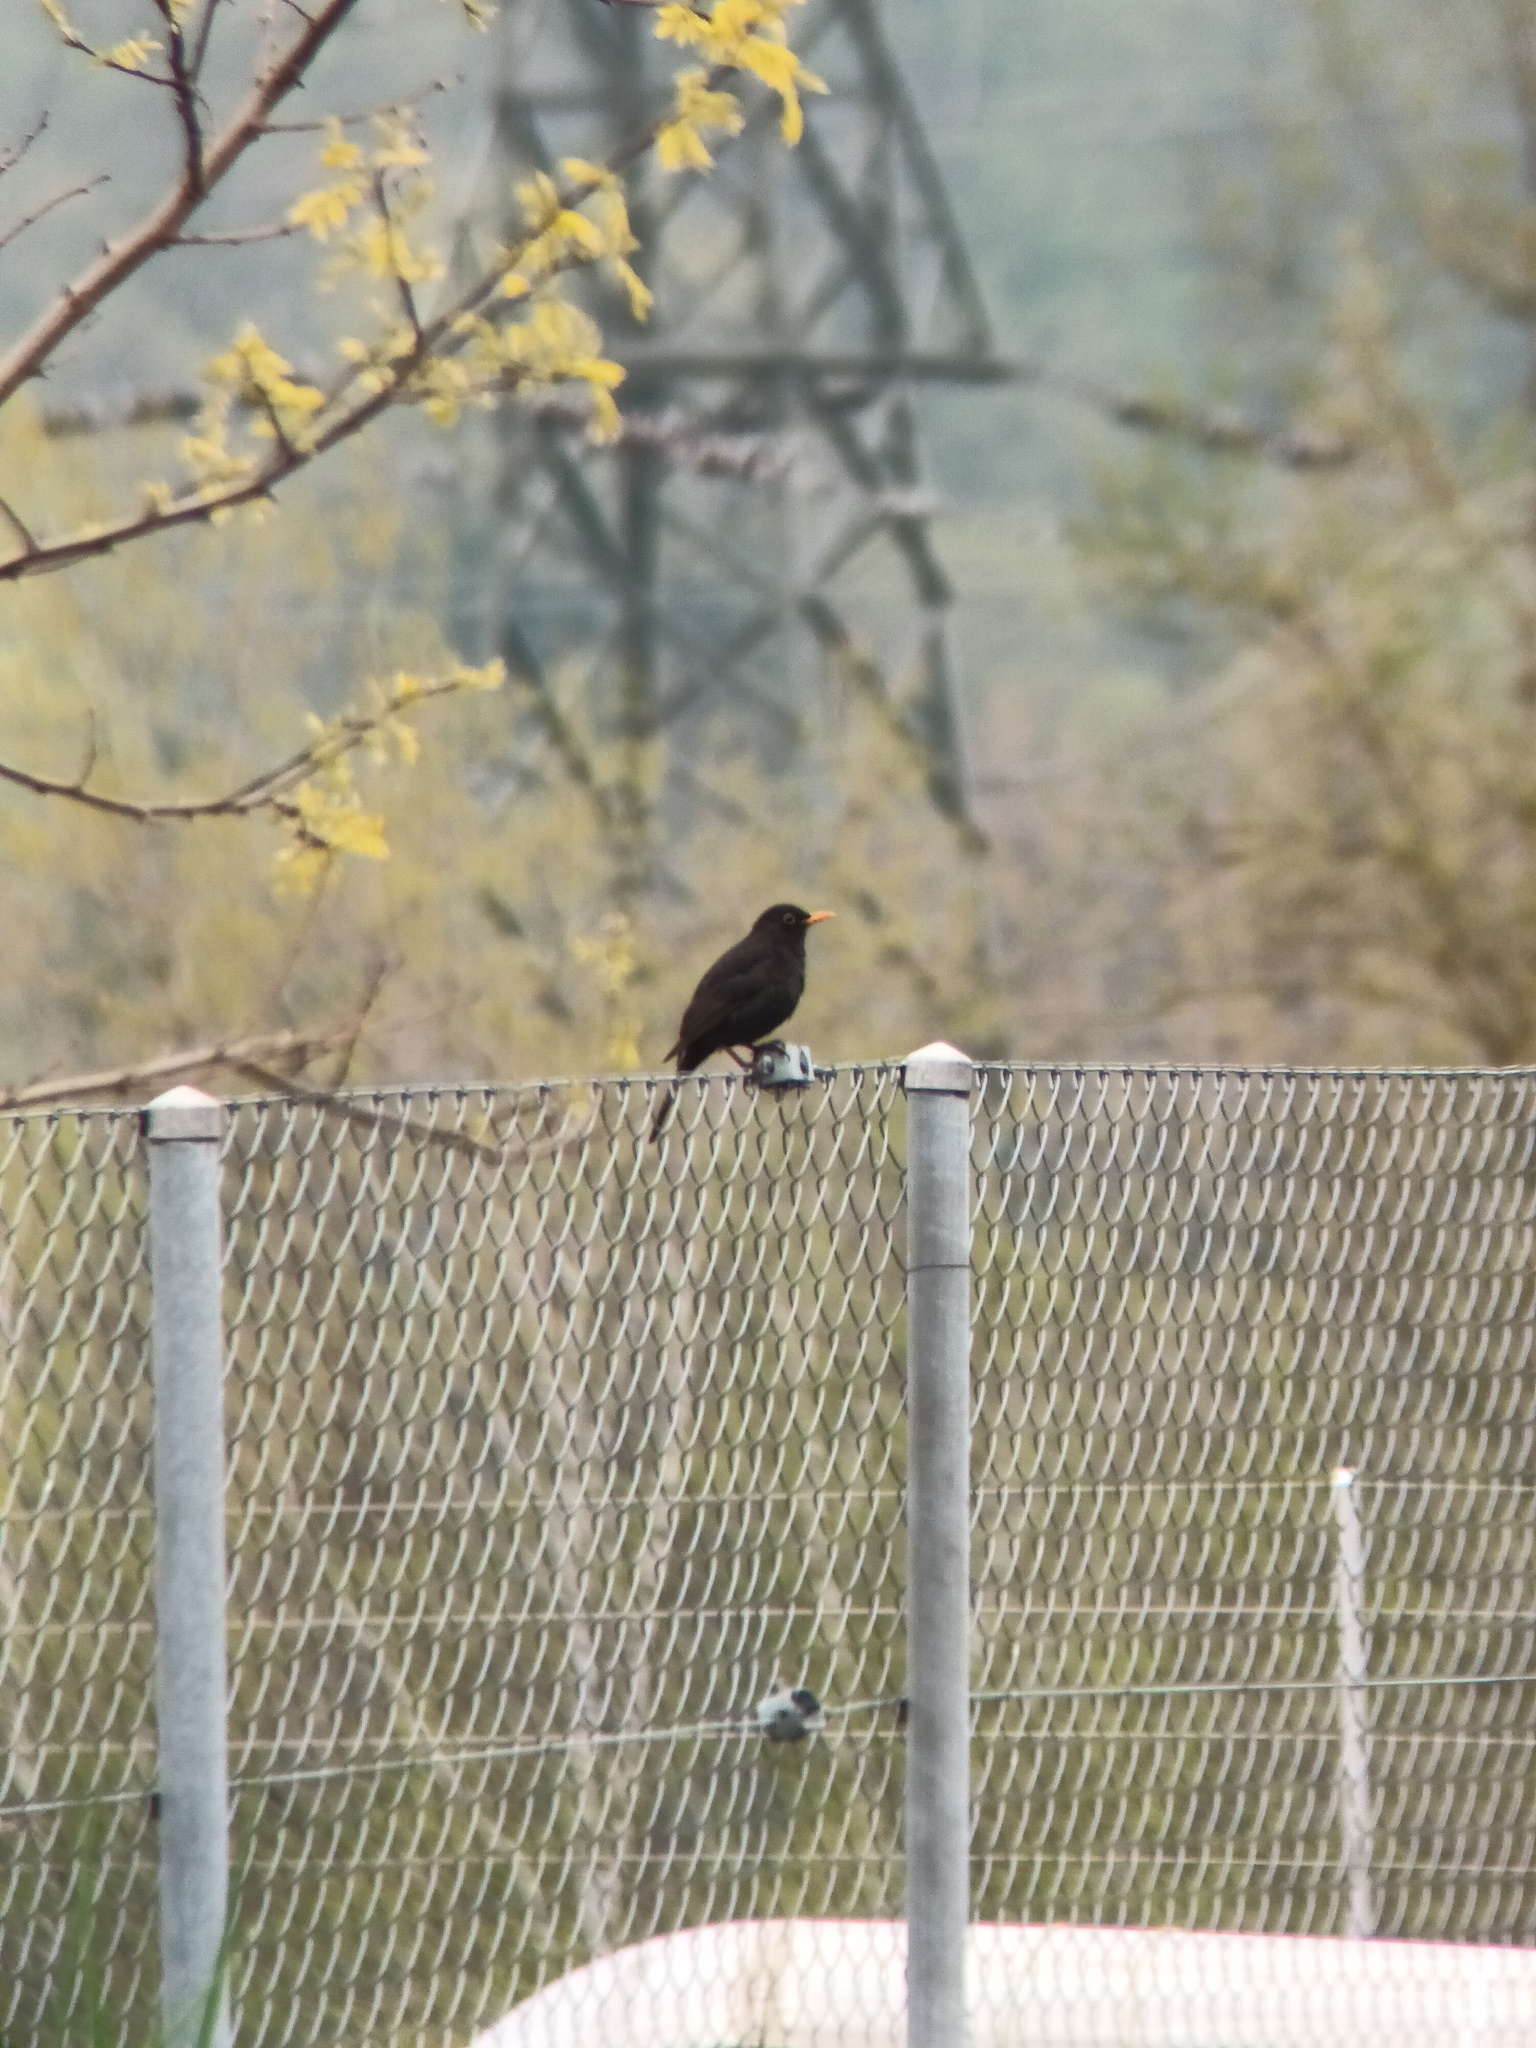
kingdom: Animalia
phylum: Chordata
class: Aves
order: Passeriformes
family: Turdidae
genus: Turdus
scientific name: Turdus merula
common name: Common blackbird
